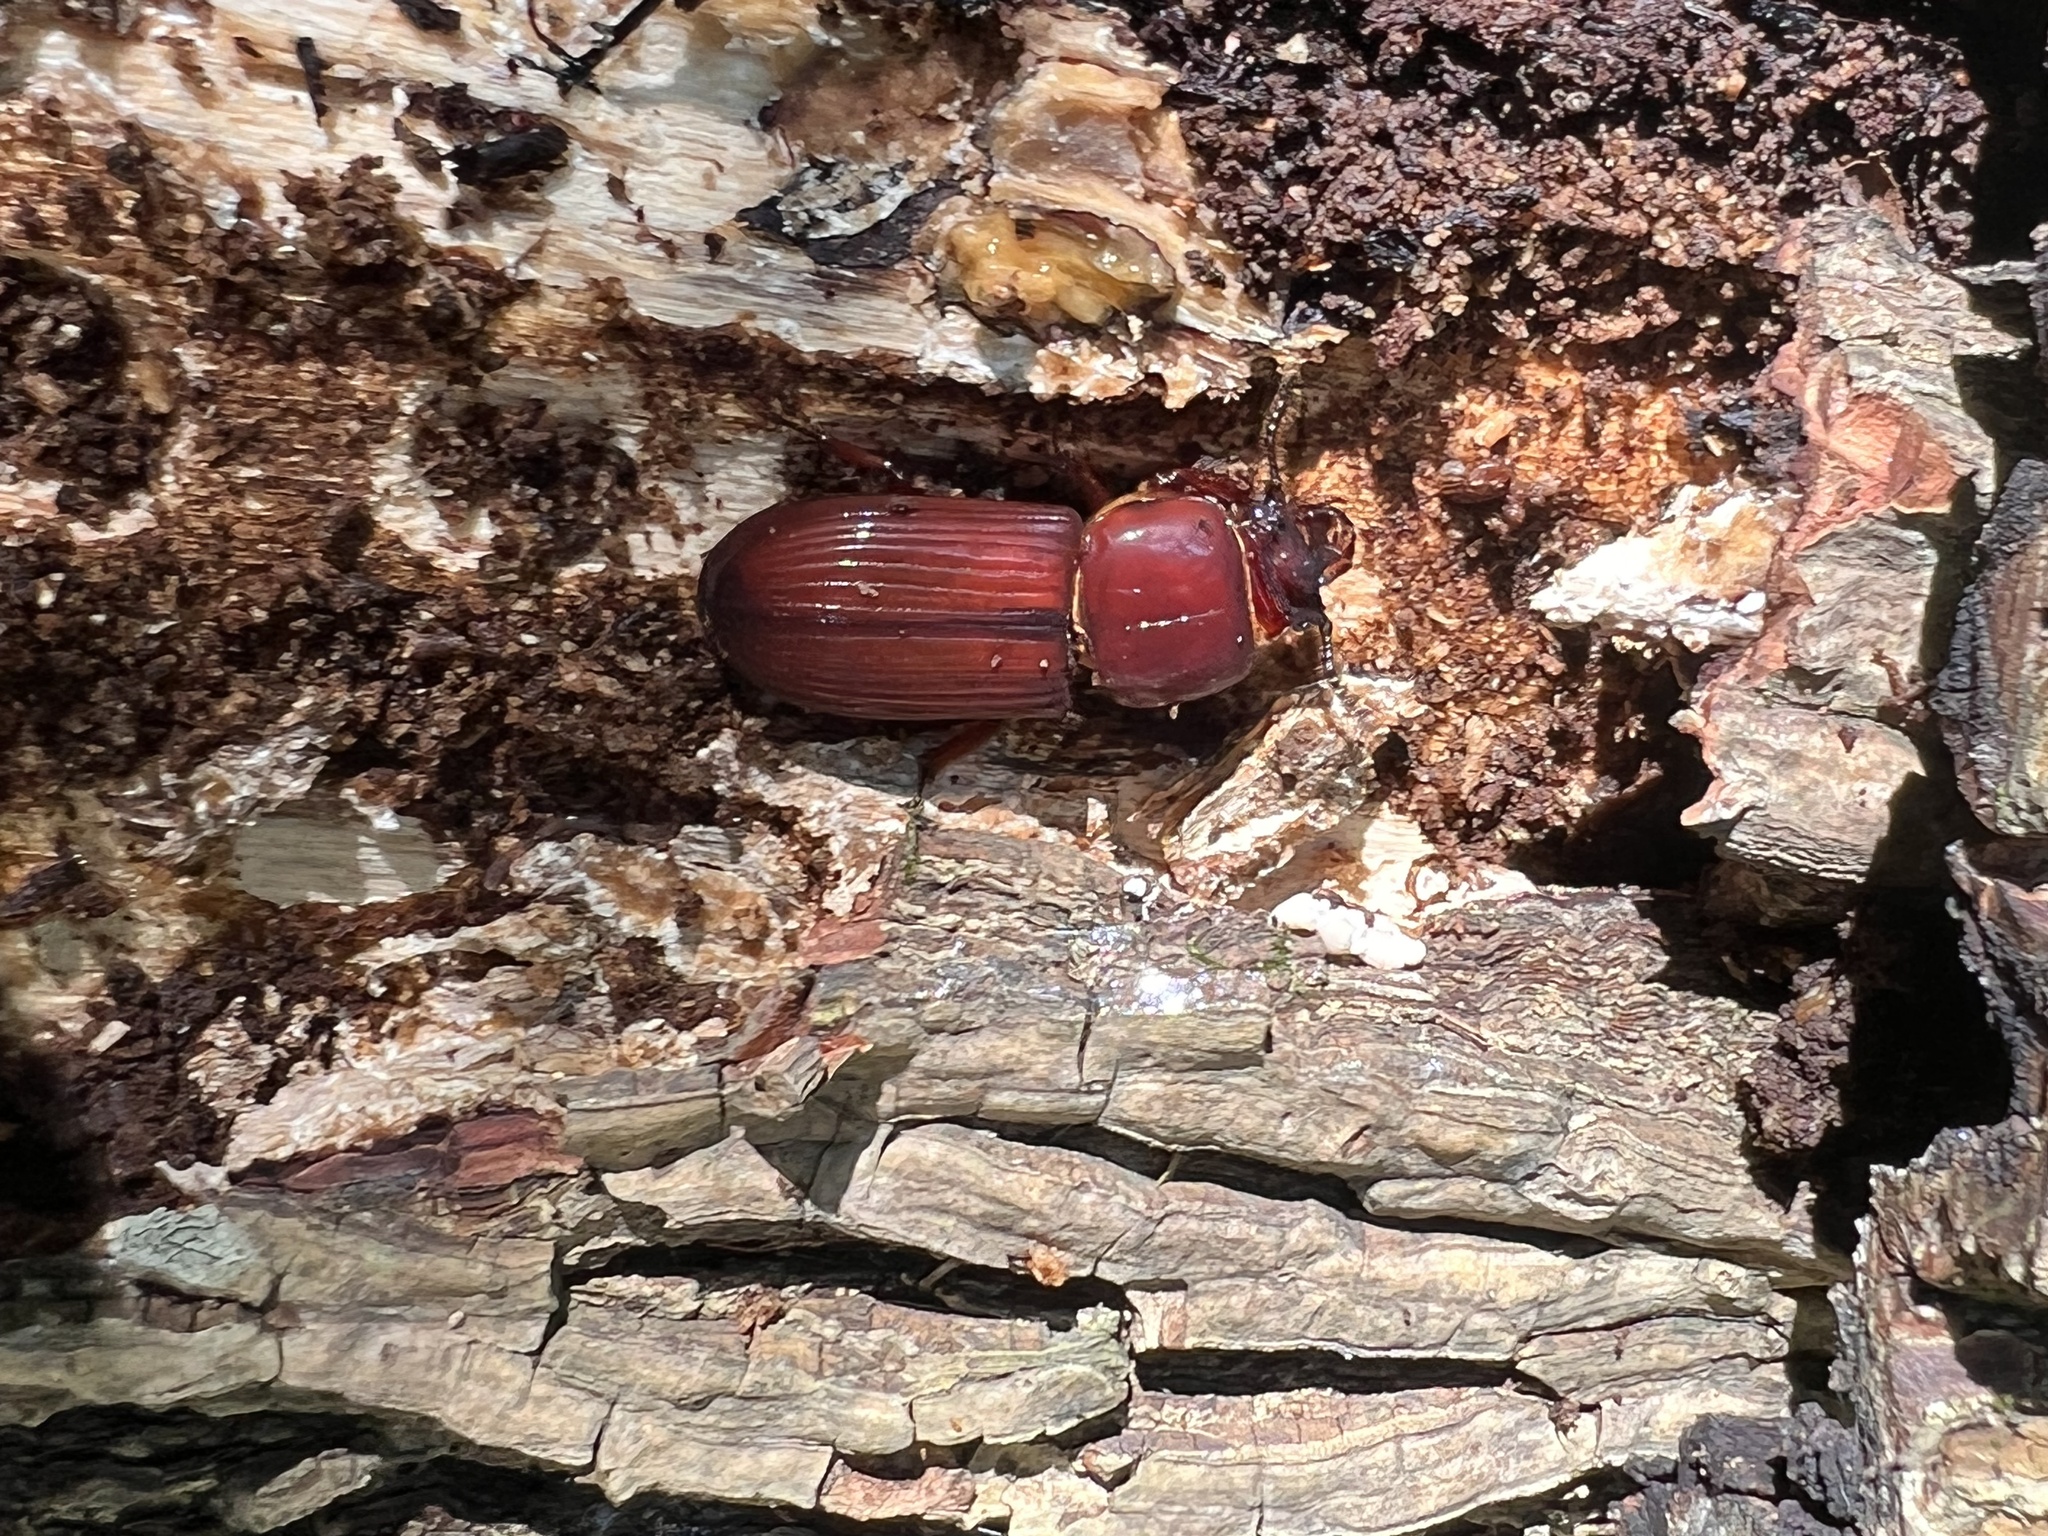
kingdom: Animalia
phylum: Arthropoda
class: Insecta
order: Coleoptera
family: Passalidae
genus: Odontotaenius
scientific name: Odontotaenius disjunctus
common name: Patent leather beetle
